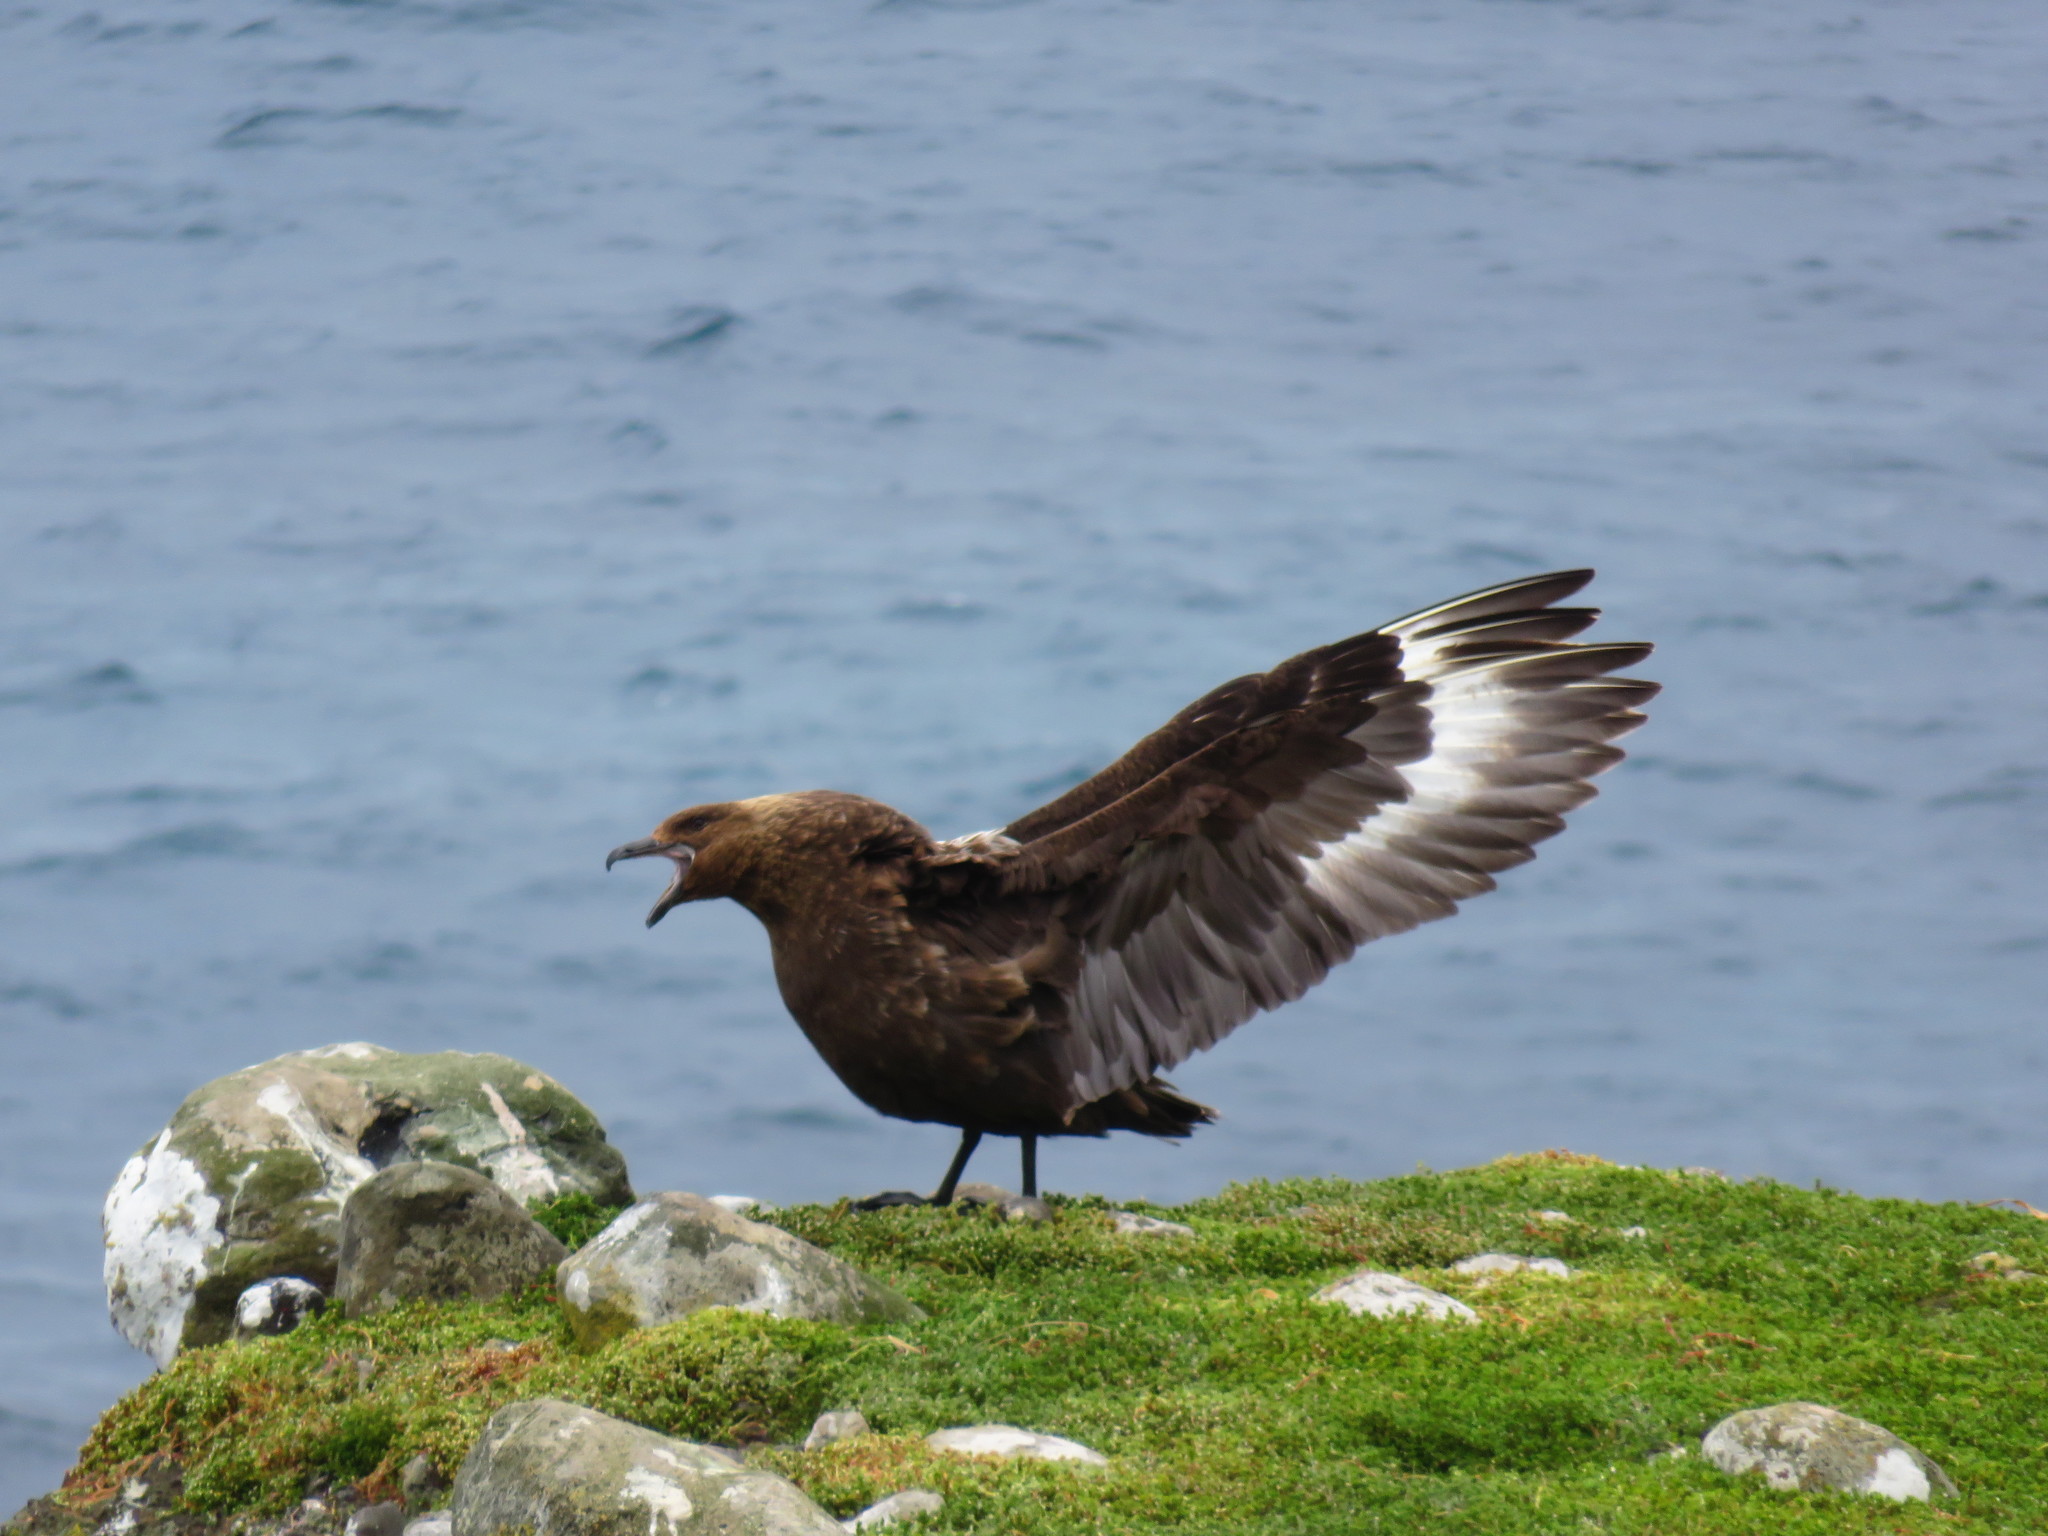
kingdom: Animalia
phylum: Chordata
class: Aves
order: Charadriiformes
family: Stercorariidae
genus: Stercorarius
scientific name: Stercorarius antarcticus
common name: Brown skua
